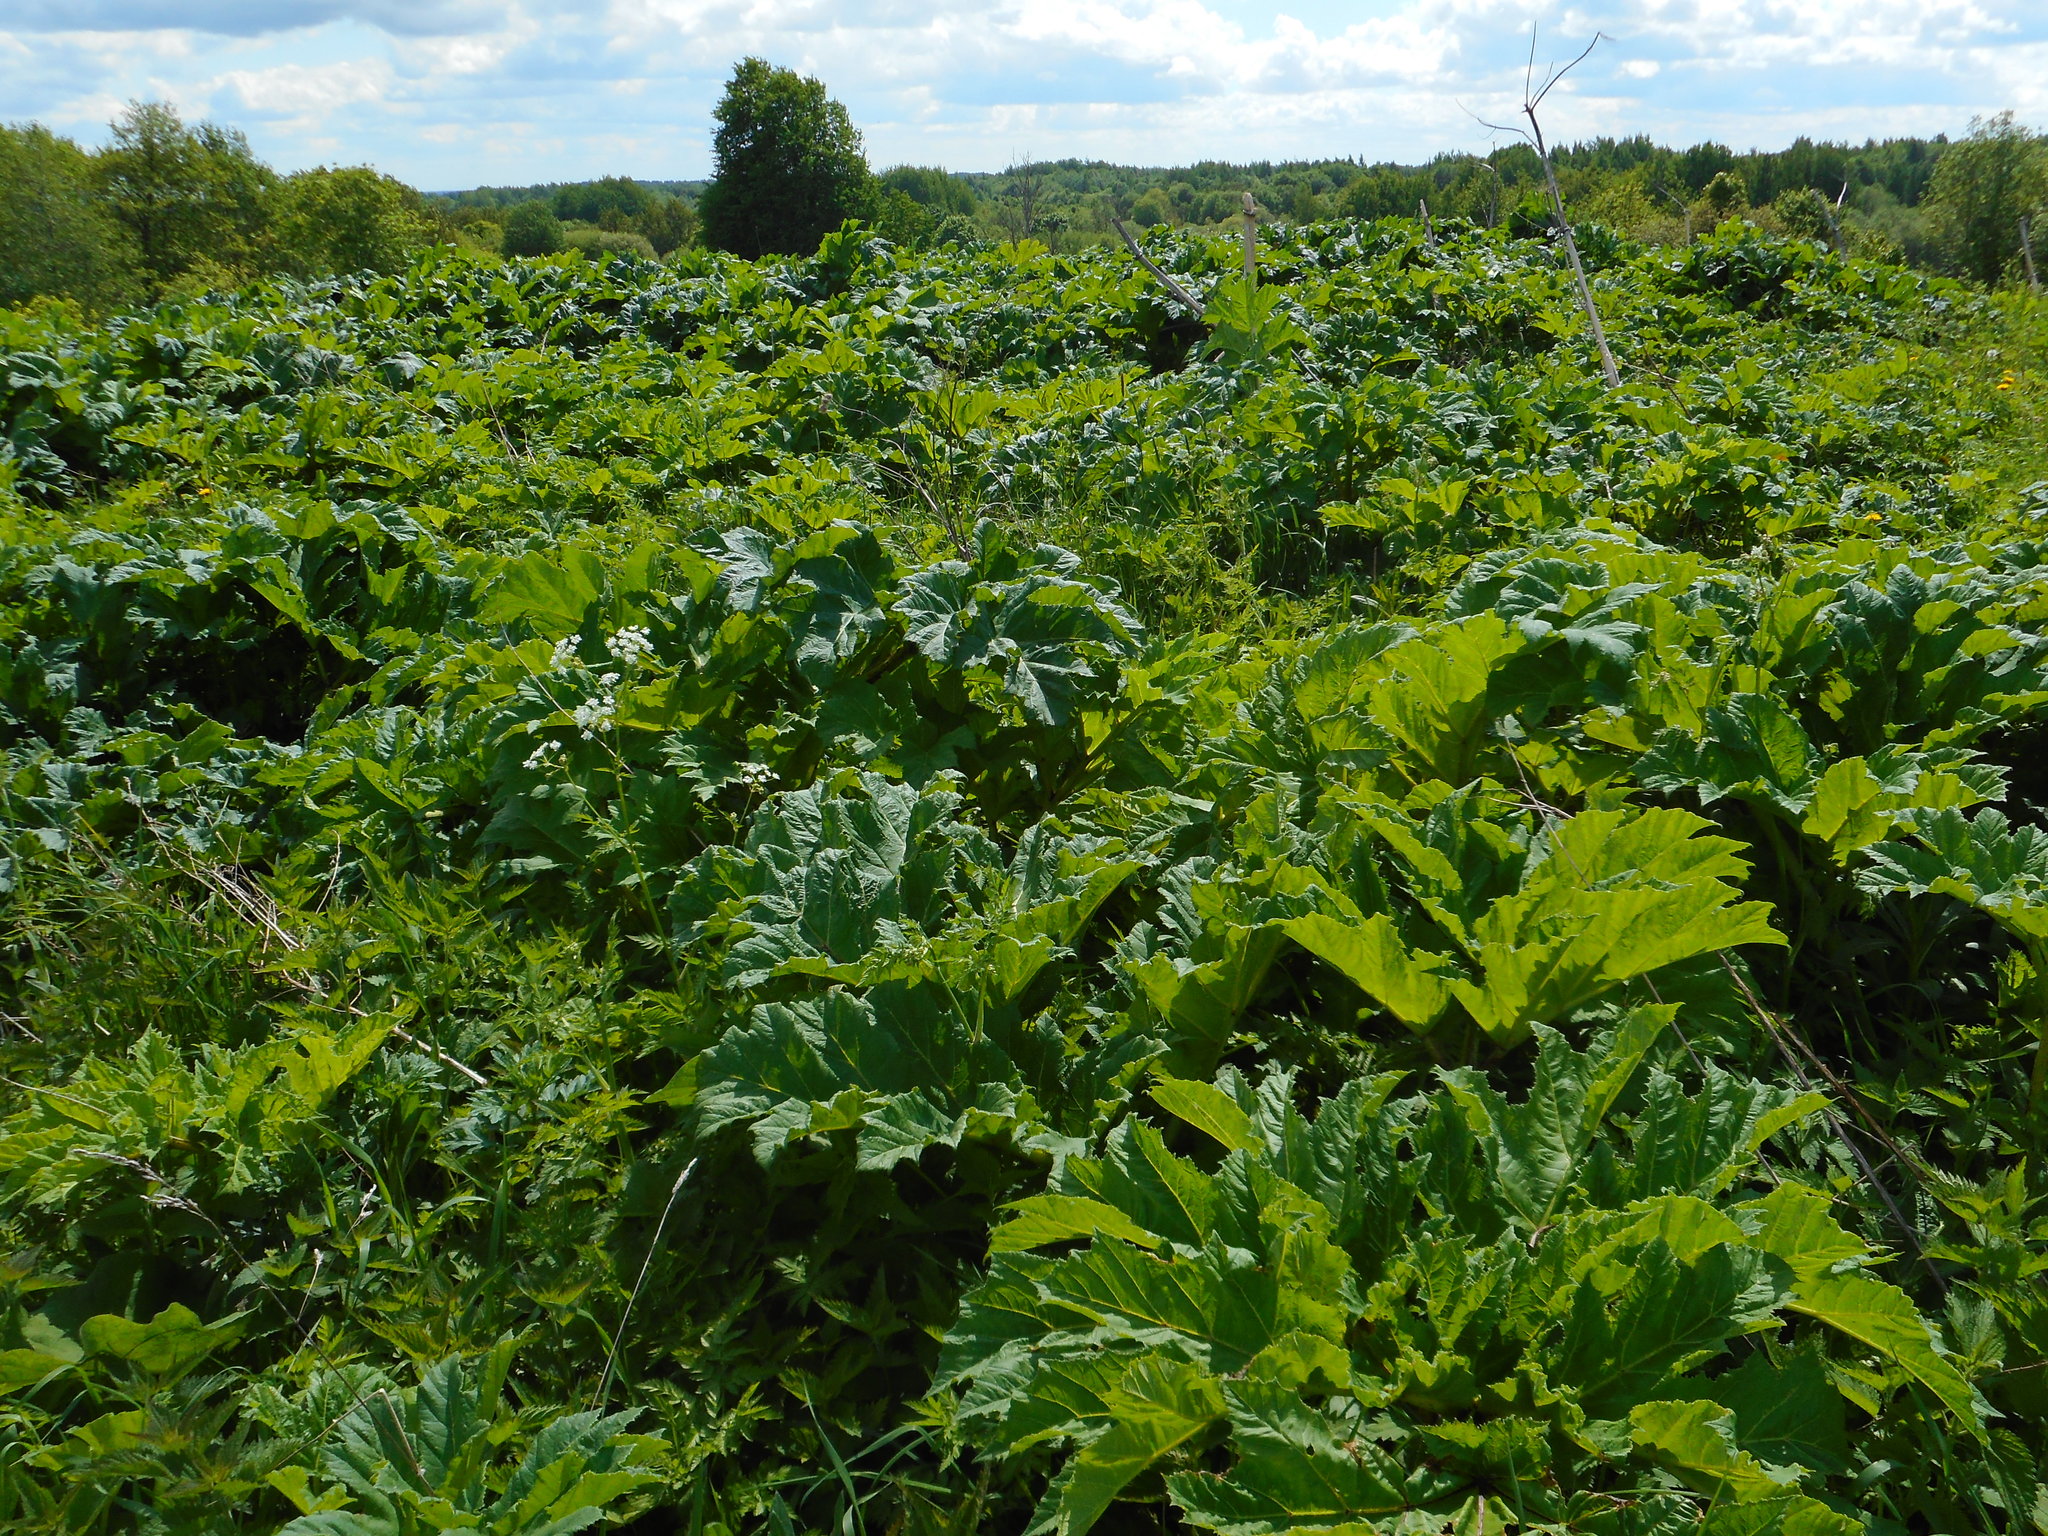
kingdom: Plantae
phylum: Tracheophyta
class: Magnoliopsida
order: Apiales
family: Apiaceae
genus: Heracleum
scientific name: Heracleum sosnowskyi
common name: Sosnowsky's hogweed
